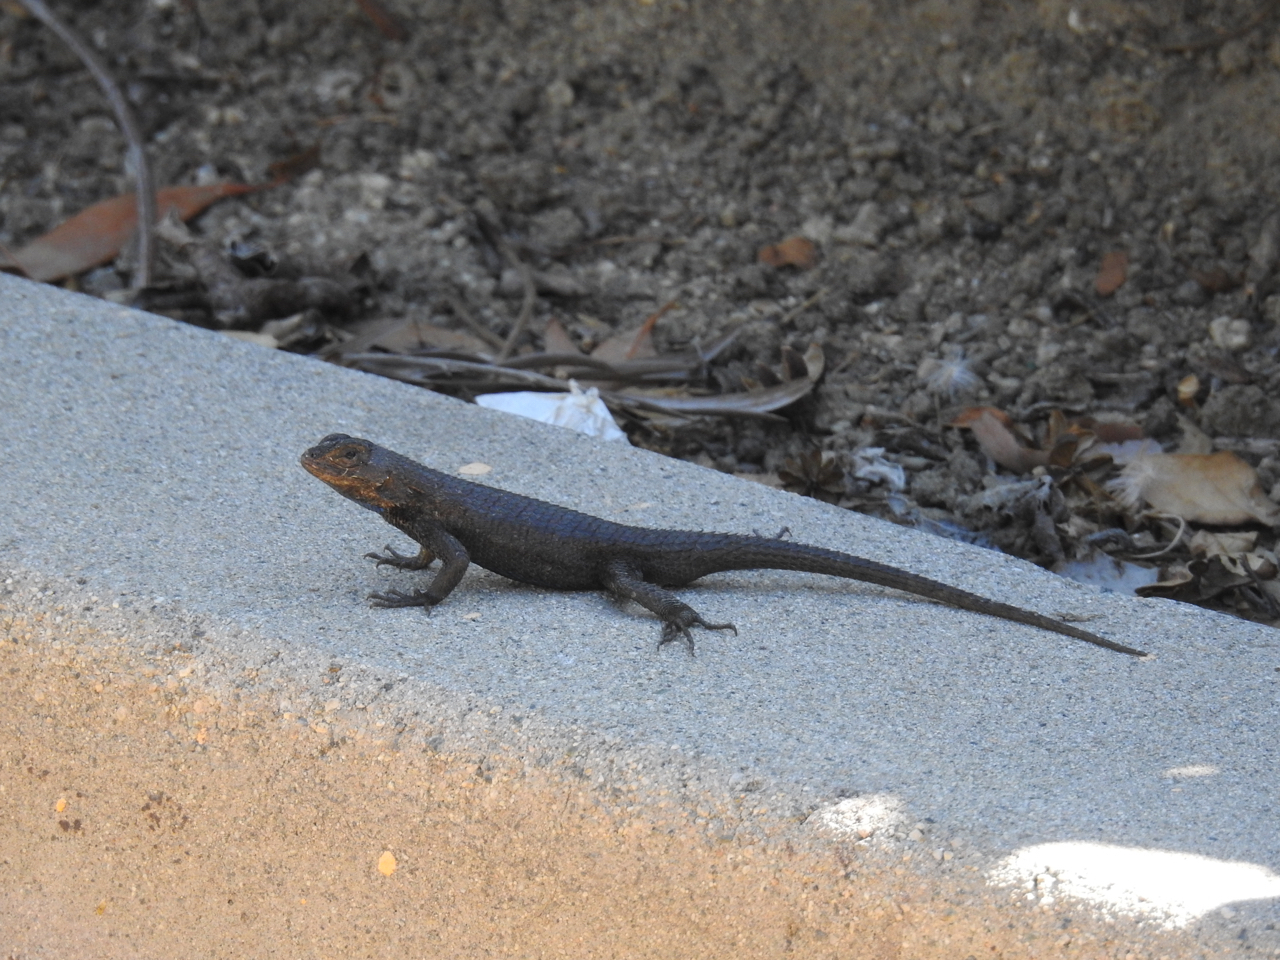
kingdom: Animalia
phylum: Chordata
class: Squamata
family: Phrynosomatidae
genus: Sceloporus
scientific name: Sceloporus occidentalis
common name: Western fence lizard
